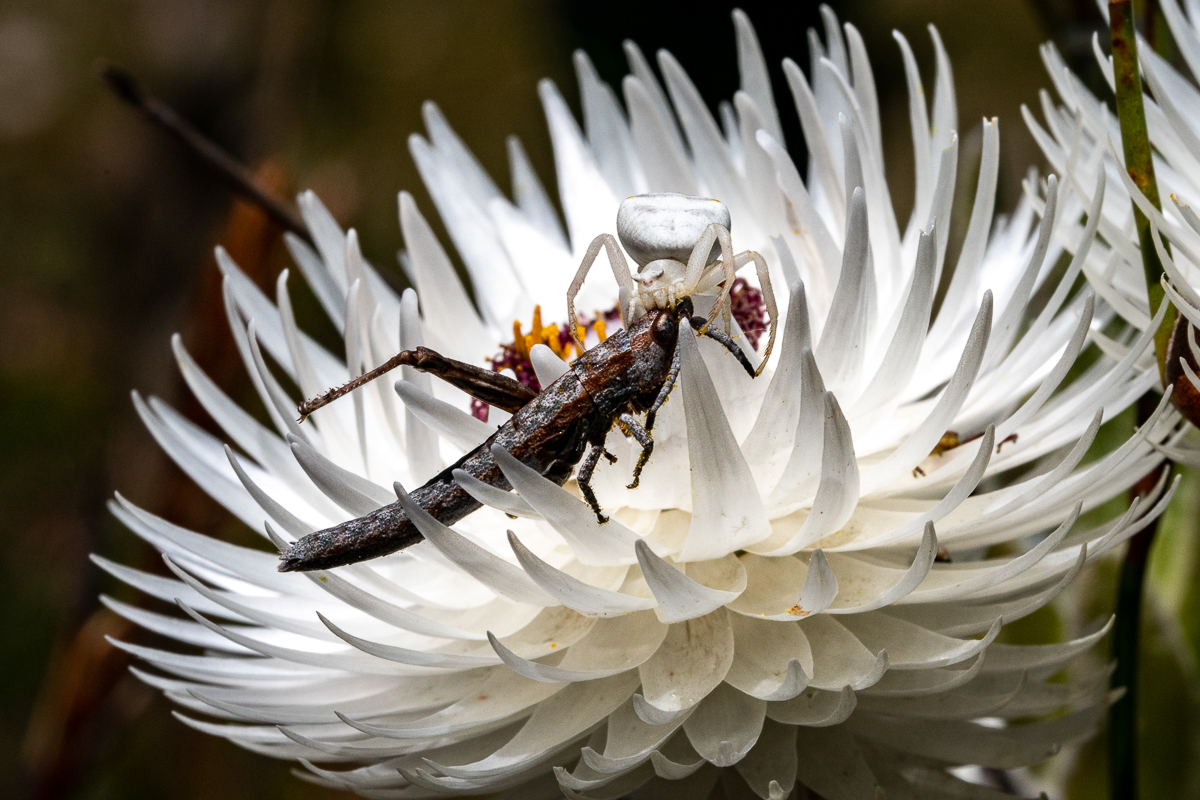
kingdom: Plantae
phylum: Tracheophyta
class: Magnoliopsida
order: Asterales
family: Asteraceae
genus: Syncarpha
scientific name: Syncarpha vestita
